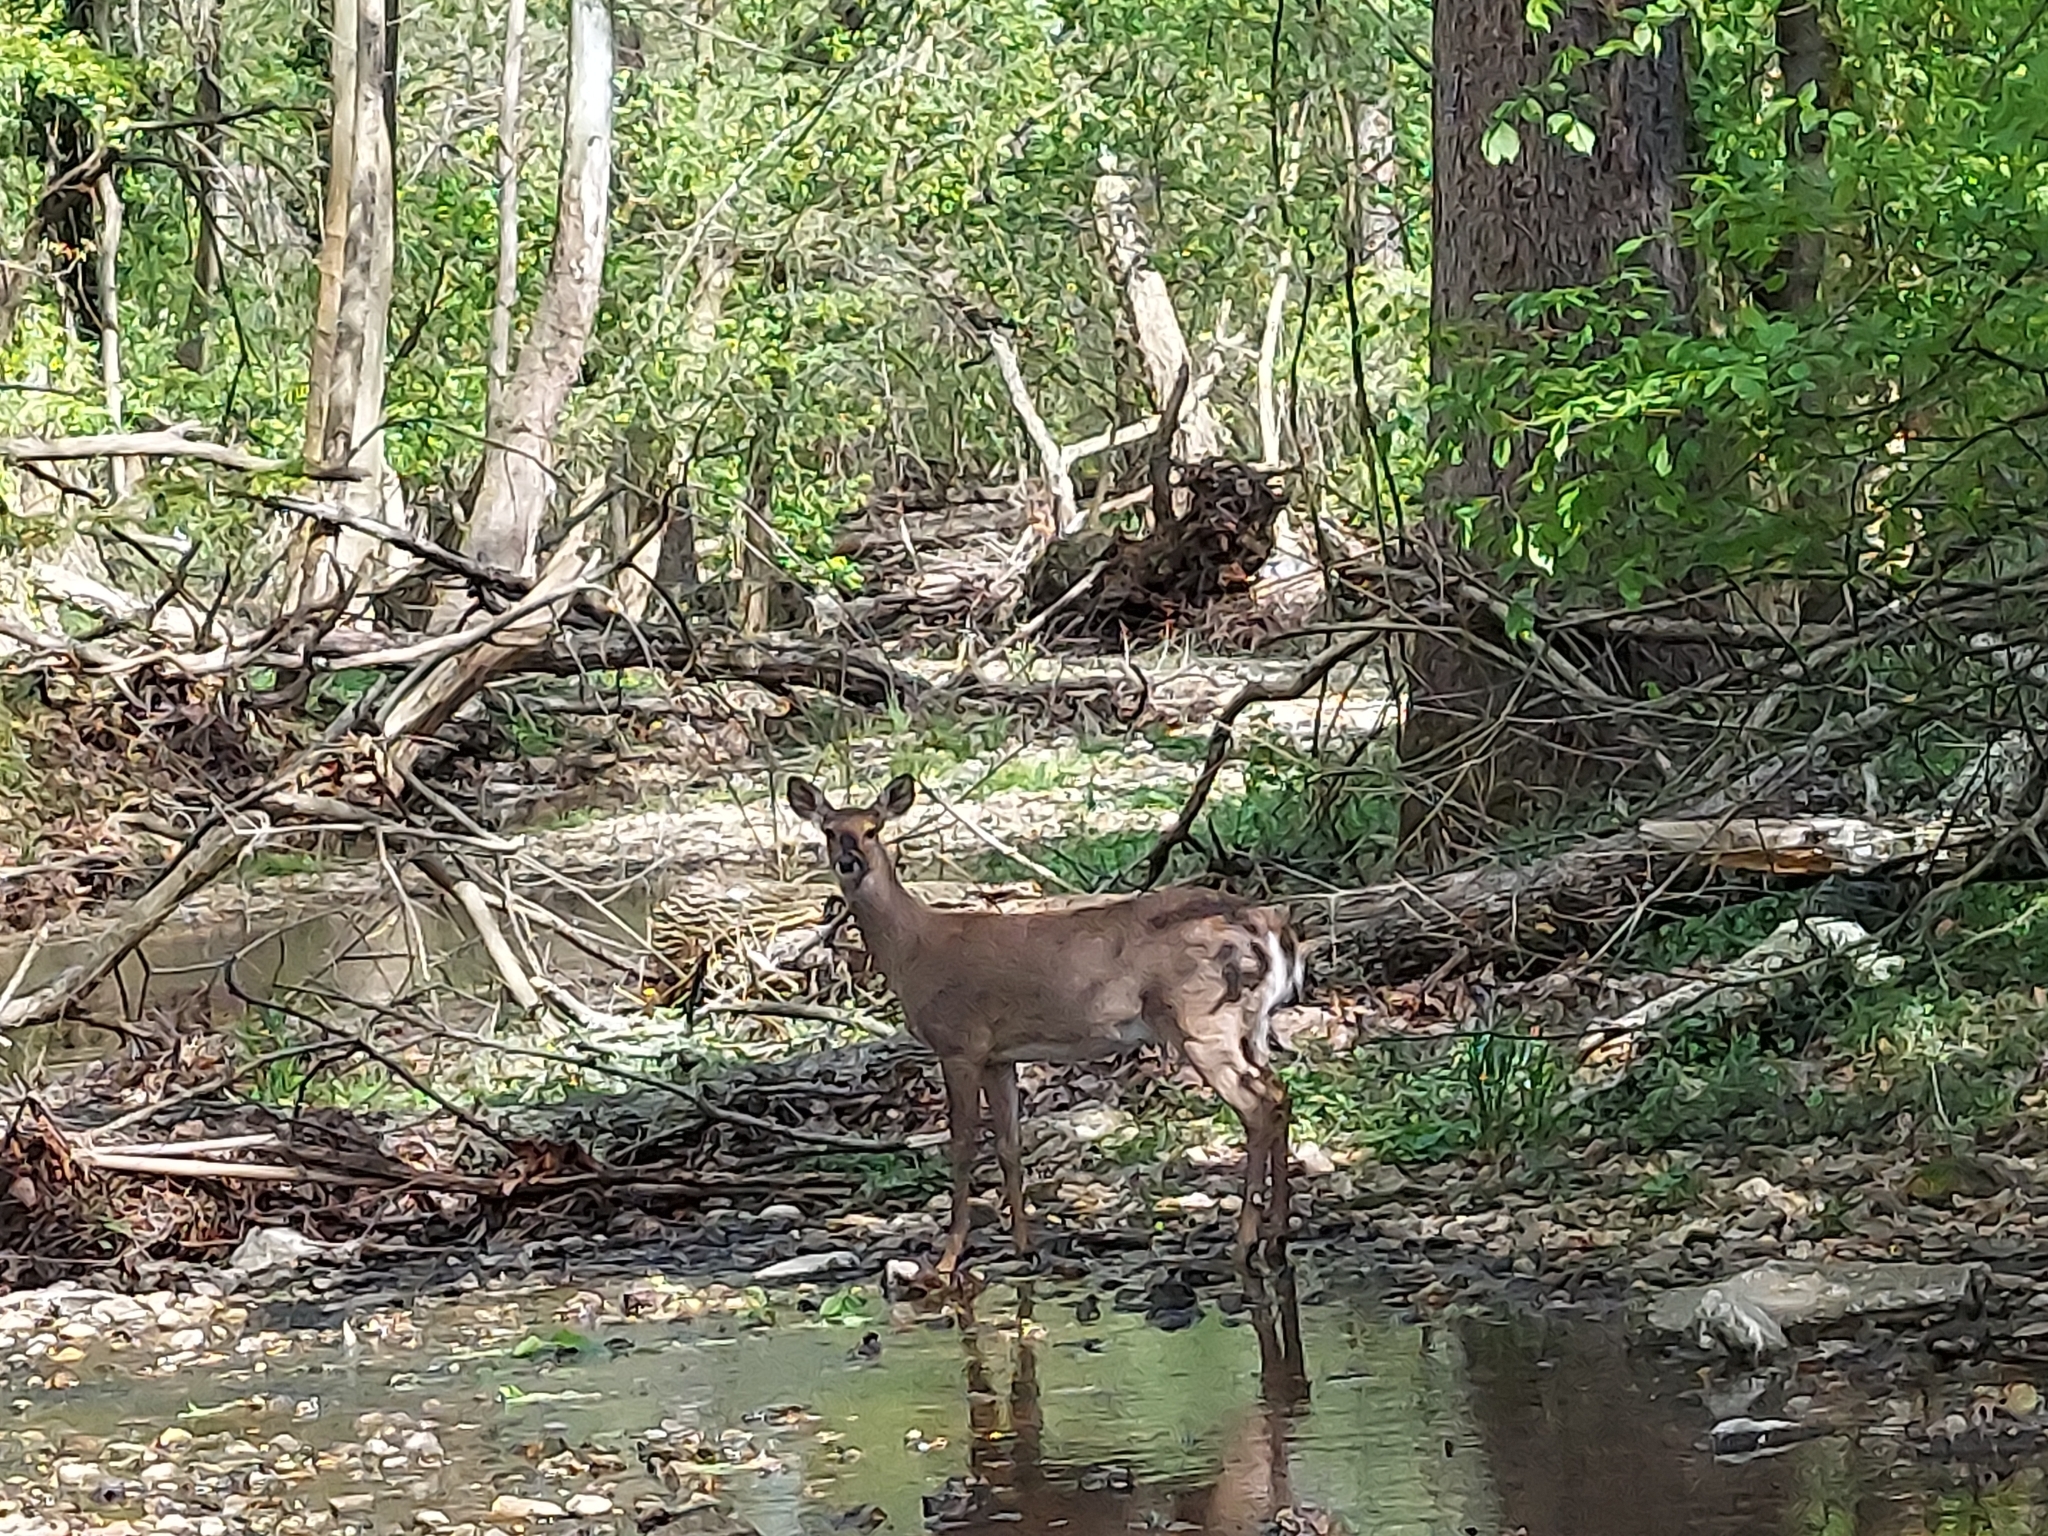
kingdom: Animalia
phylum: Chordata
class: Mammalia
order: Artiodactyla
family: Cervidae
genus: Odocoileus
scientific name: Odocoileus virginianus
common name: White-tailed deer
